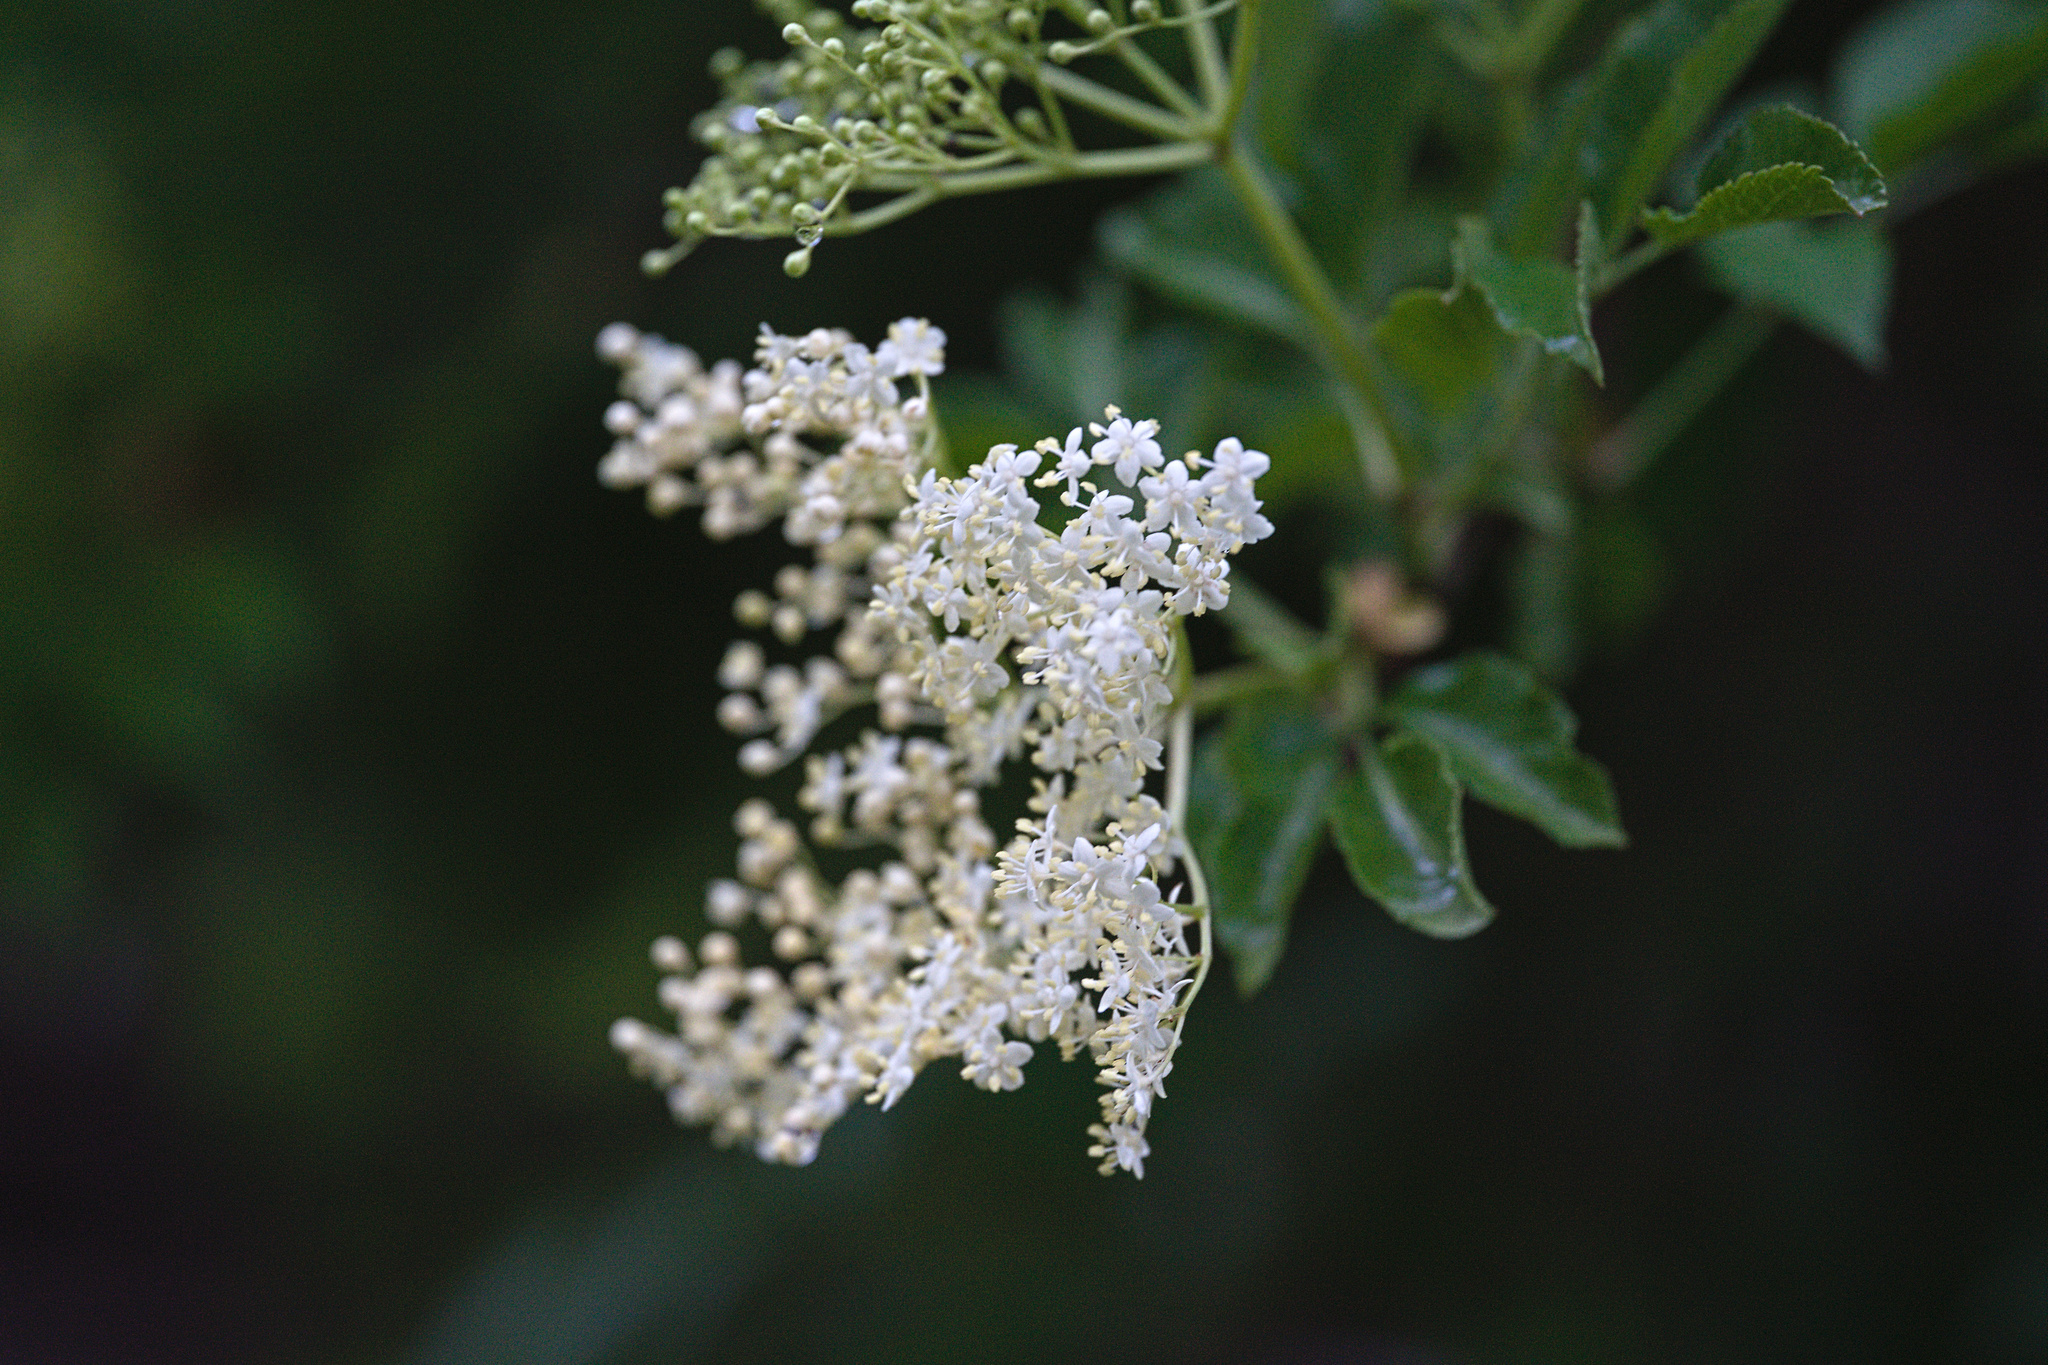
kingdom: Plantae
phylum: Tracheophyta
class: Magnoliopsida
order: Dipsacales
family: Viburnaceae
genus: Sambucus
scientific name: Sambucus nigra
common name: Elder
